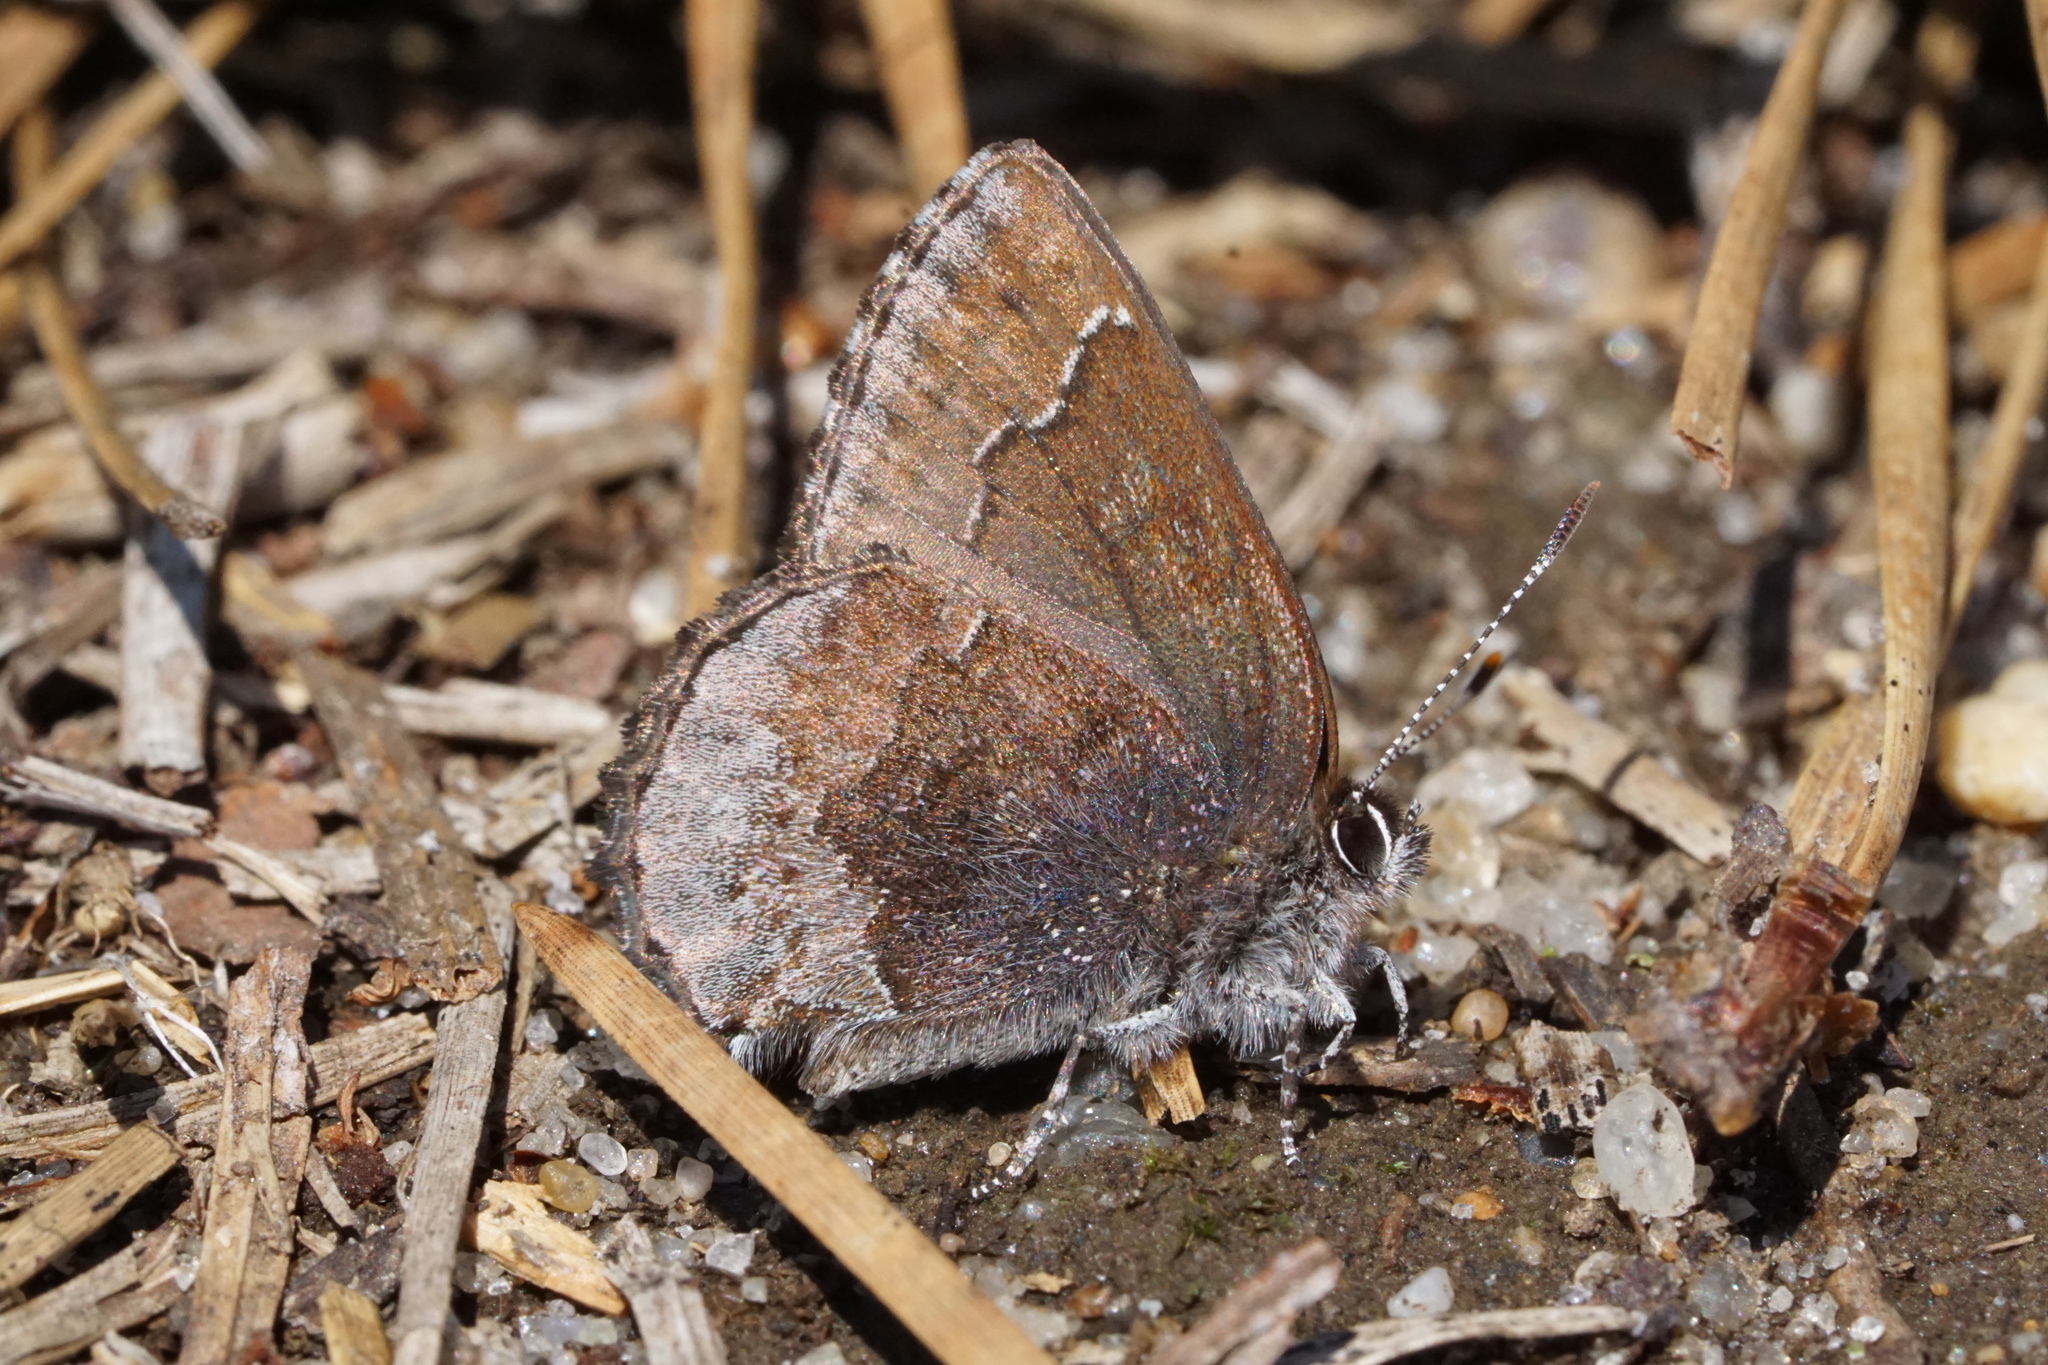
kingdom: Animalia
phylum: Arthropoda
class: Insecta
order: Lepidoptera
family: Lycaenidae
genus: Callophrys
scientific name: Callophrys polios
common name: Hoary elfin
